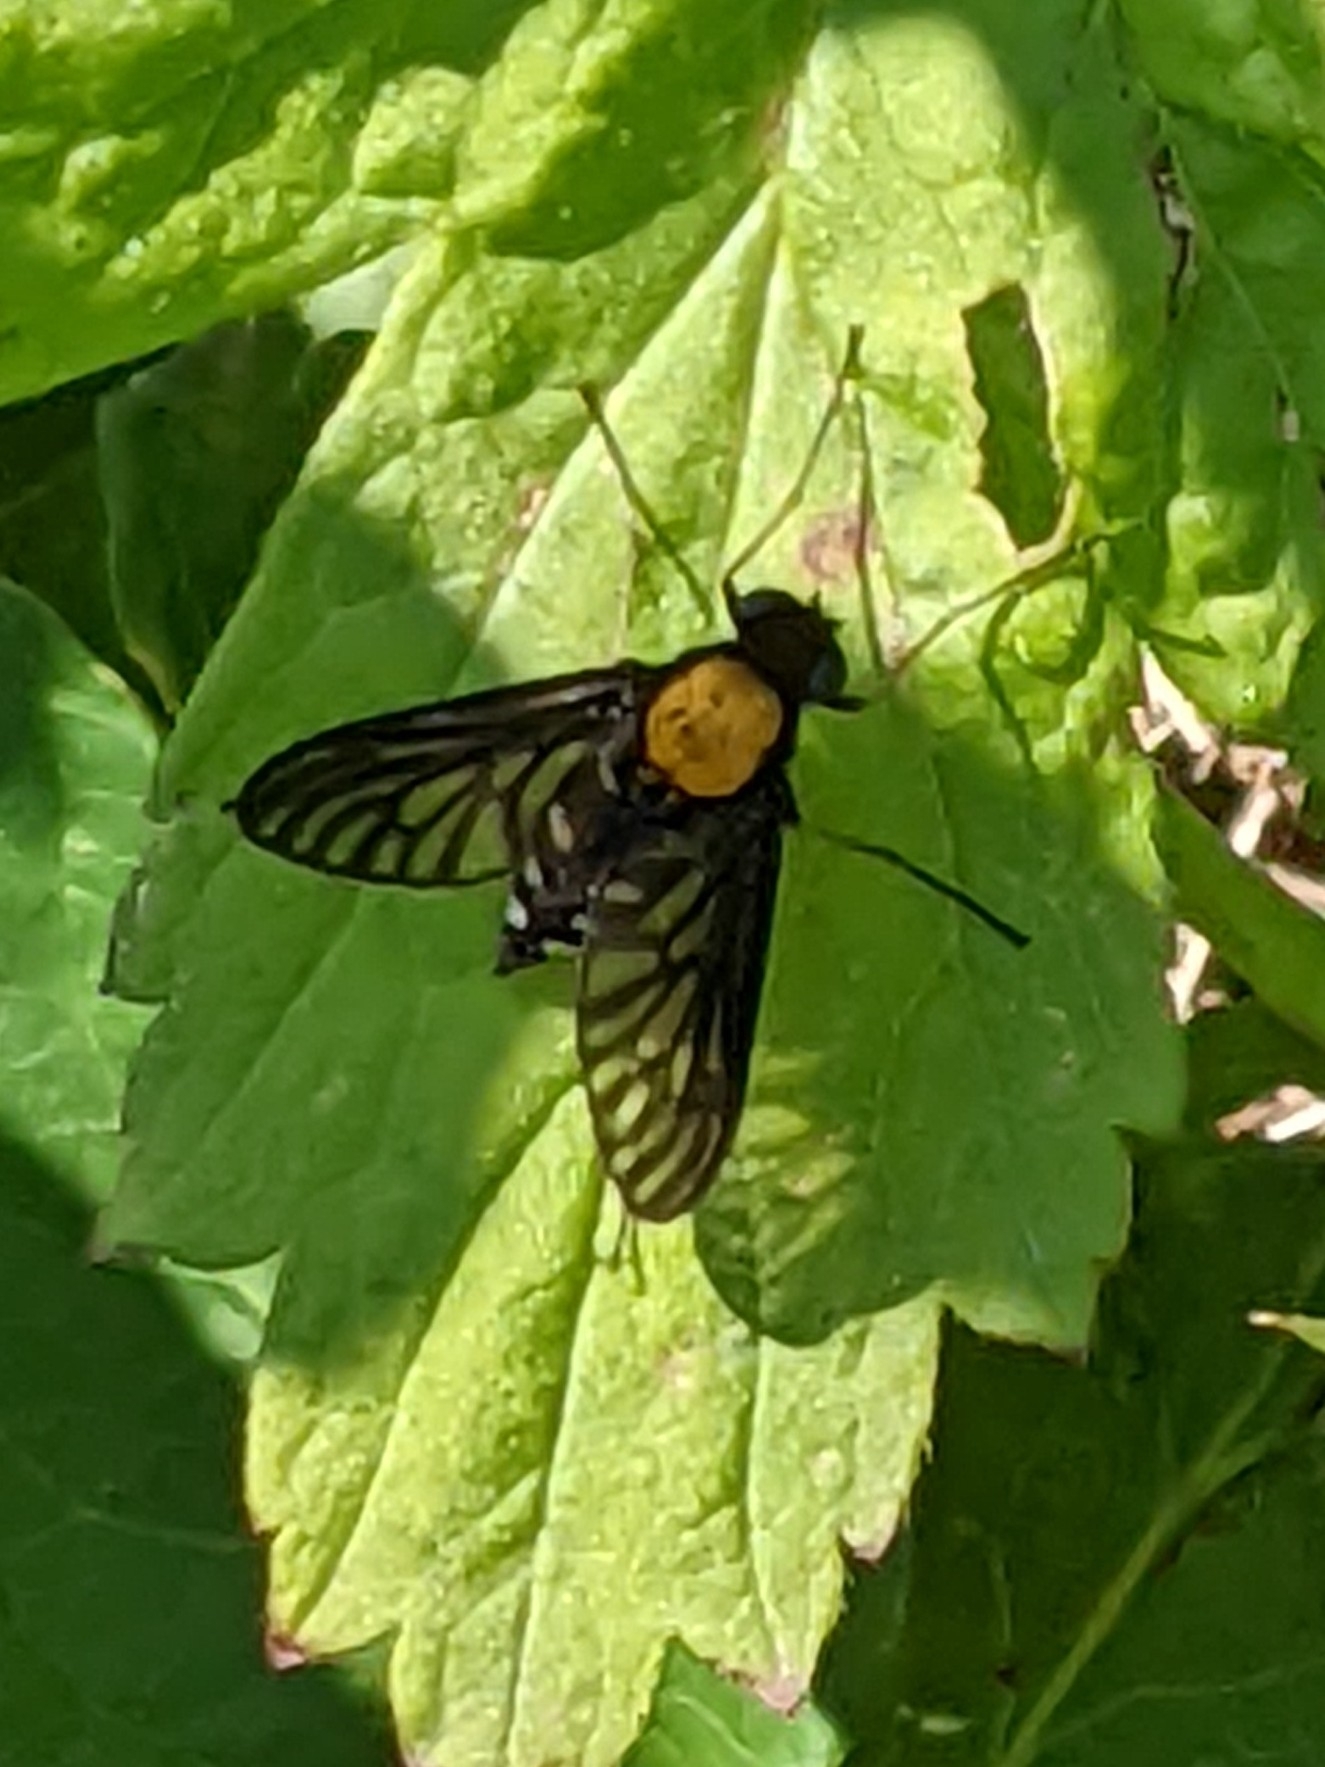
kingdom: Animalia
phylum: Arthropoda
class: Insecta
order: Diptera
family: Rhagionidae
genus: Chrysopilus
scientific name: Chrysopilus thoracicus
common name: Golden-backed snipe fly
